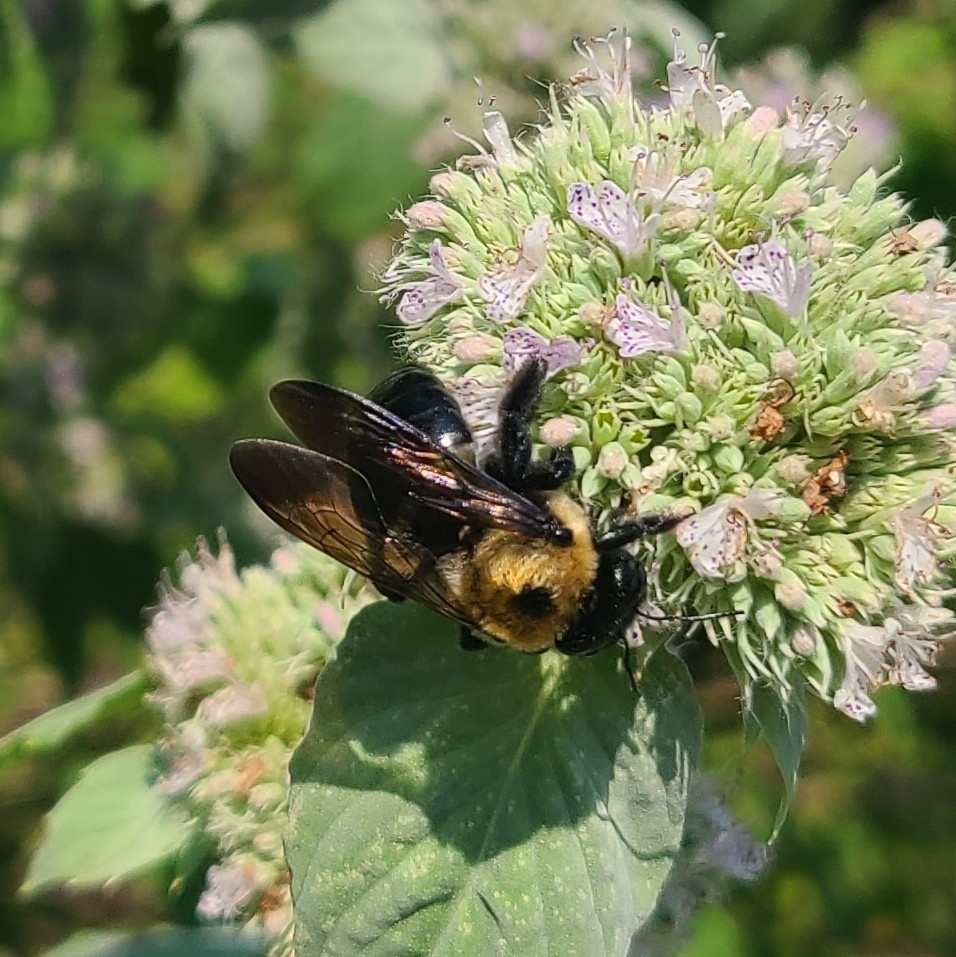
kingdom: Animalia
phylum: Arthropoda
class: Insecta
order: Hymenoptera
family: Apidae
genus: Xylocopa
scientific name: Xylocopa virginica
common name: Carpenter bee
